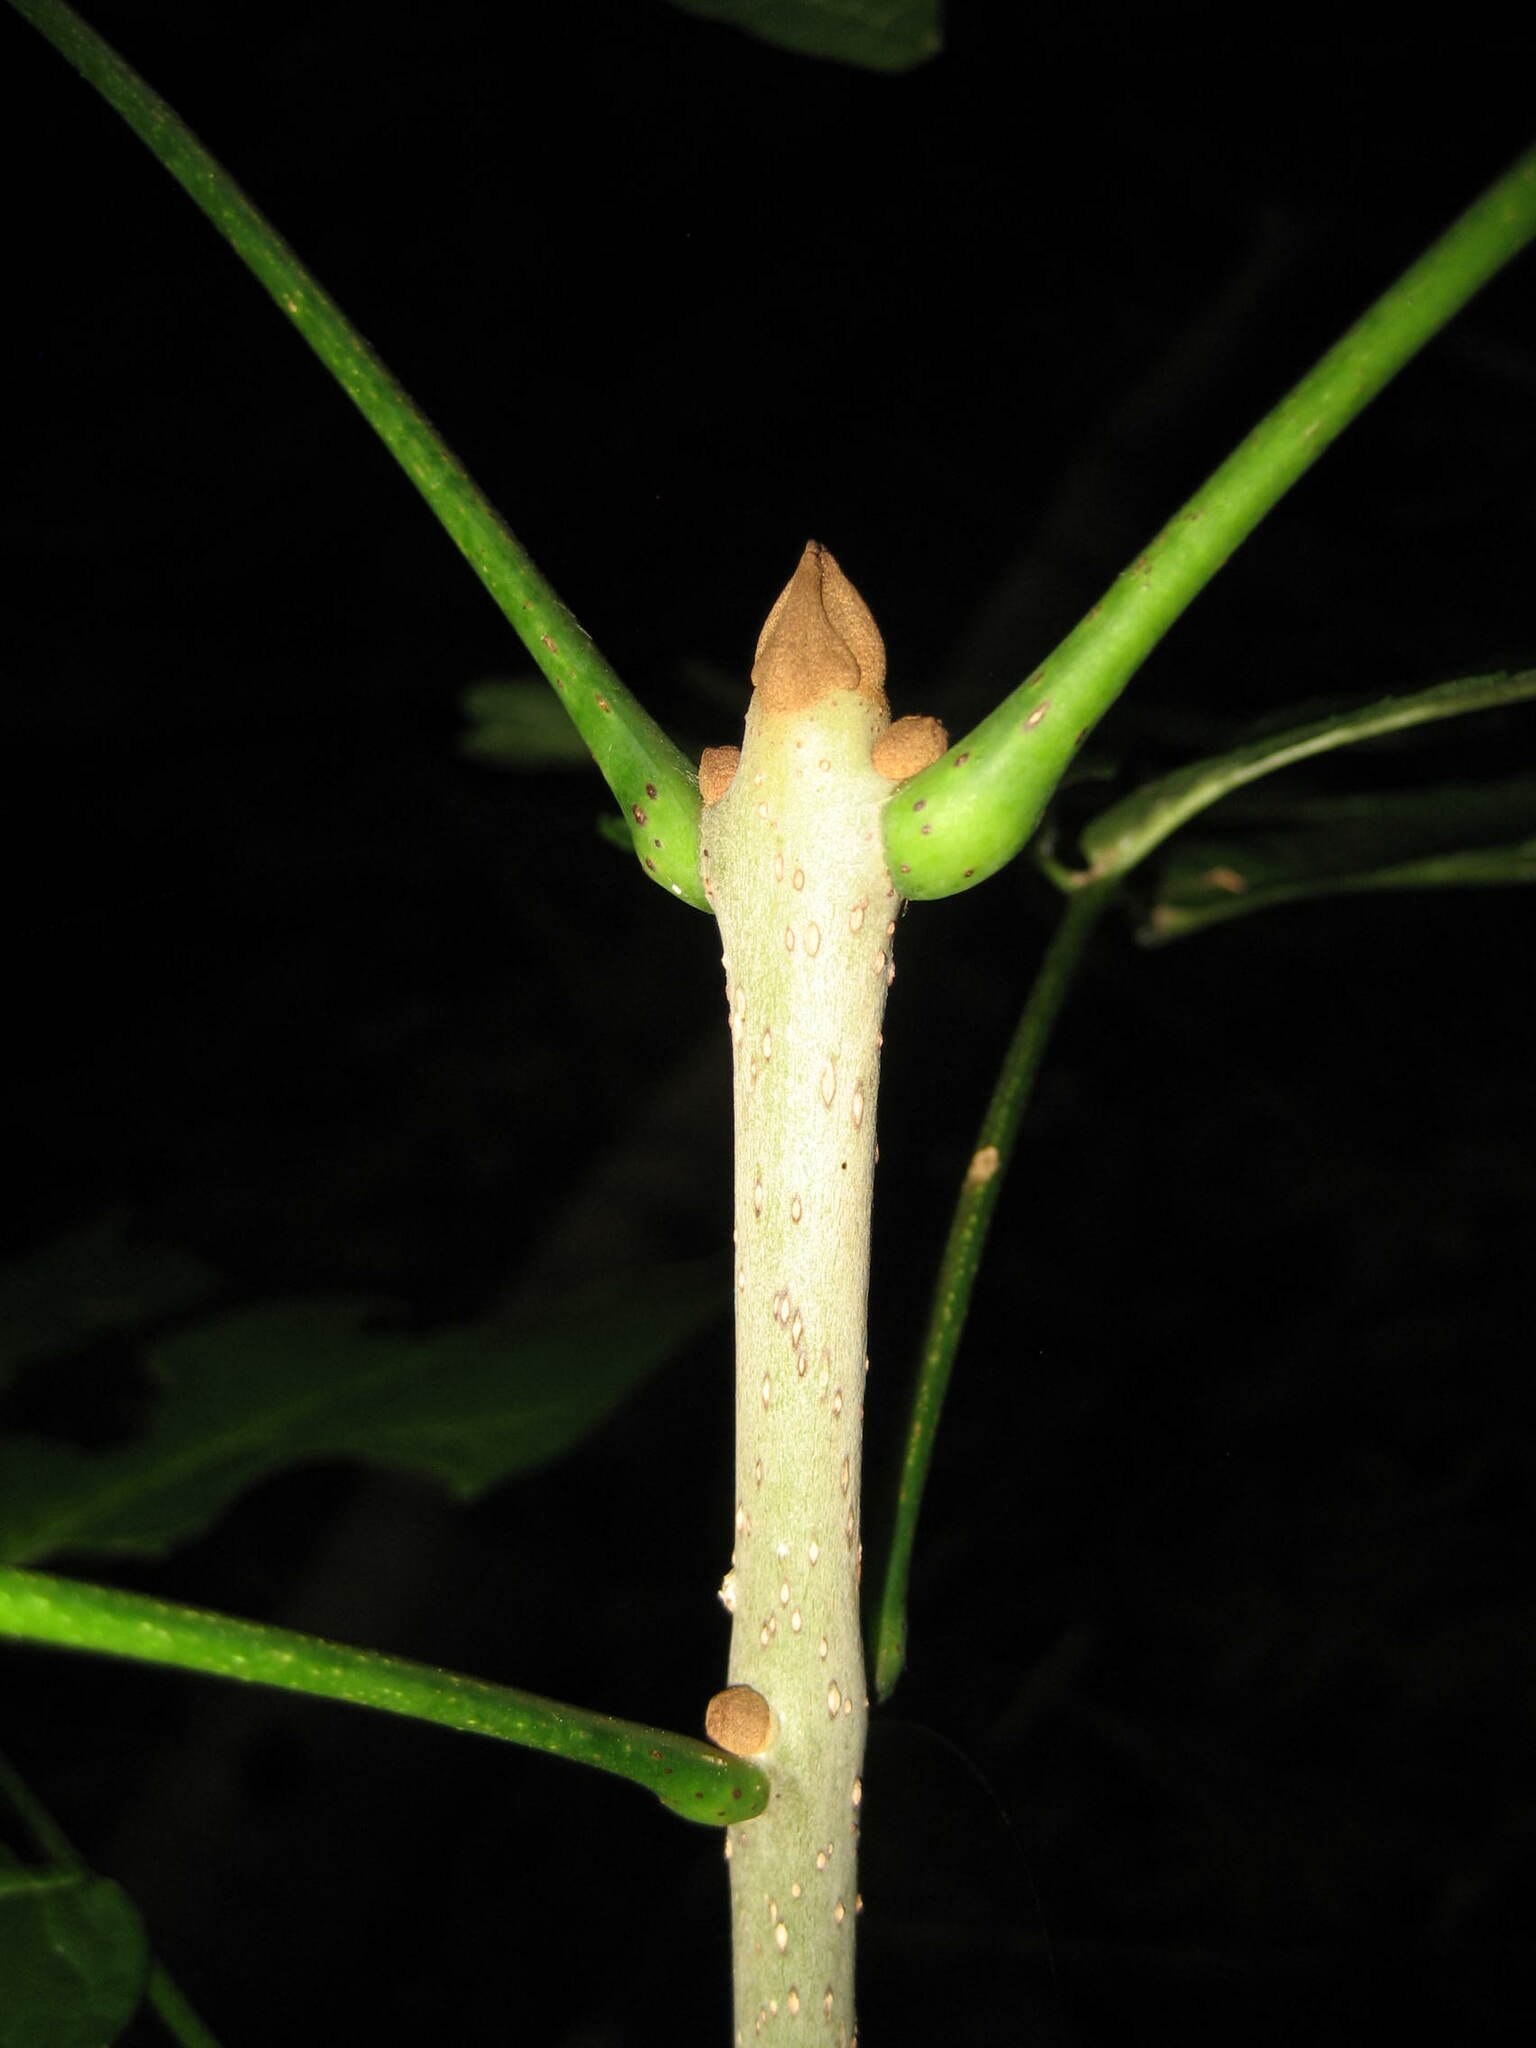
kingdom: Plantae
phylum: Tracheophyta
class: Magnoliopsida
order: Lamiales
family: Oleaceae
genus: Fraxinus
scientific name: Fraxinus nigra
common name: Black ash
